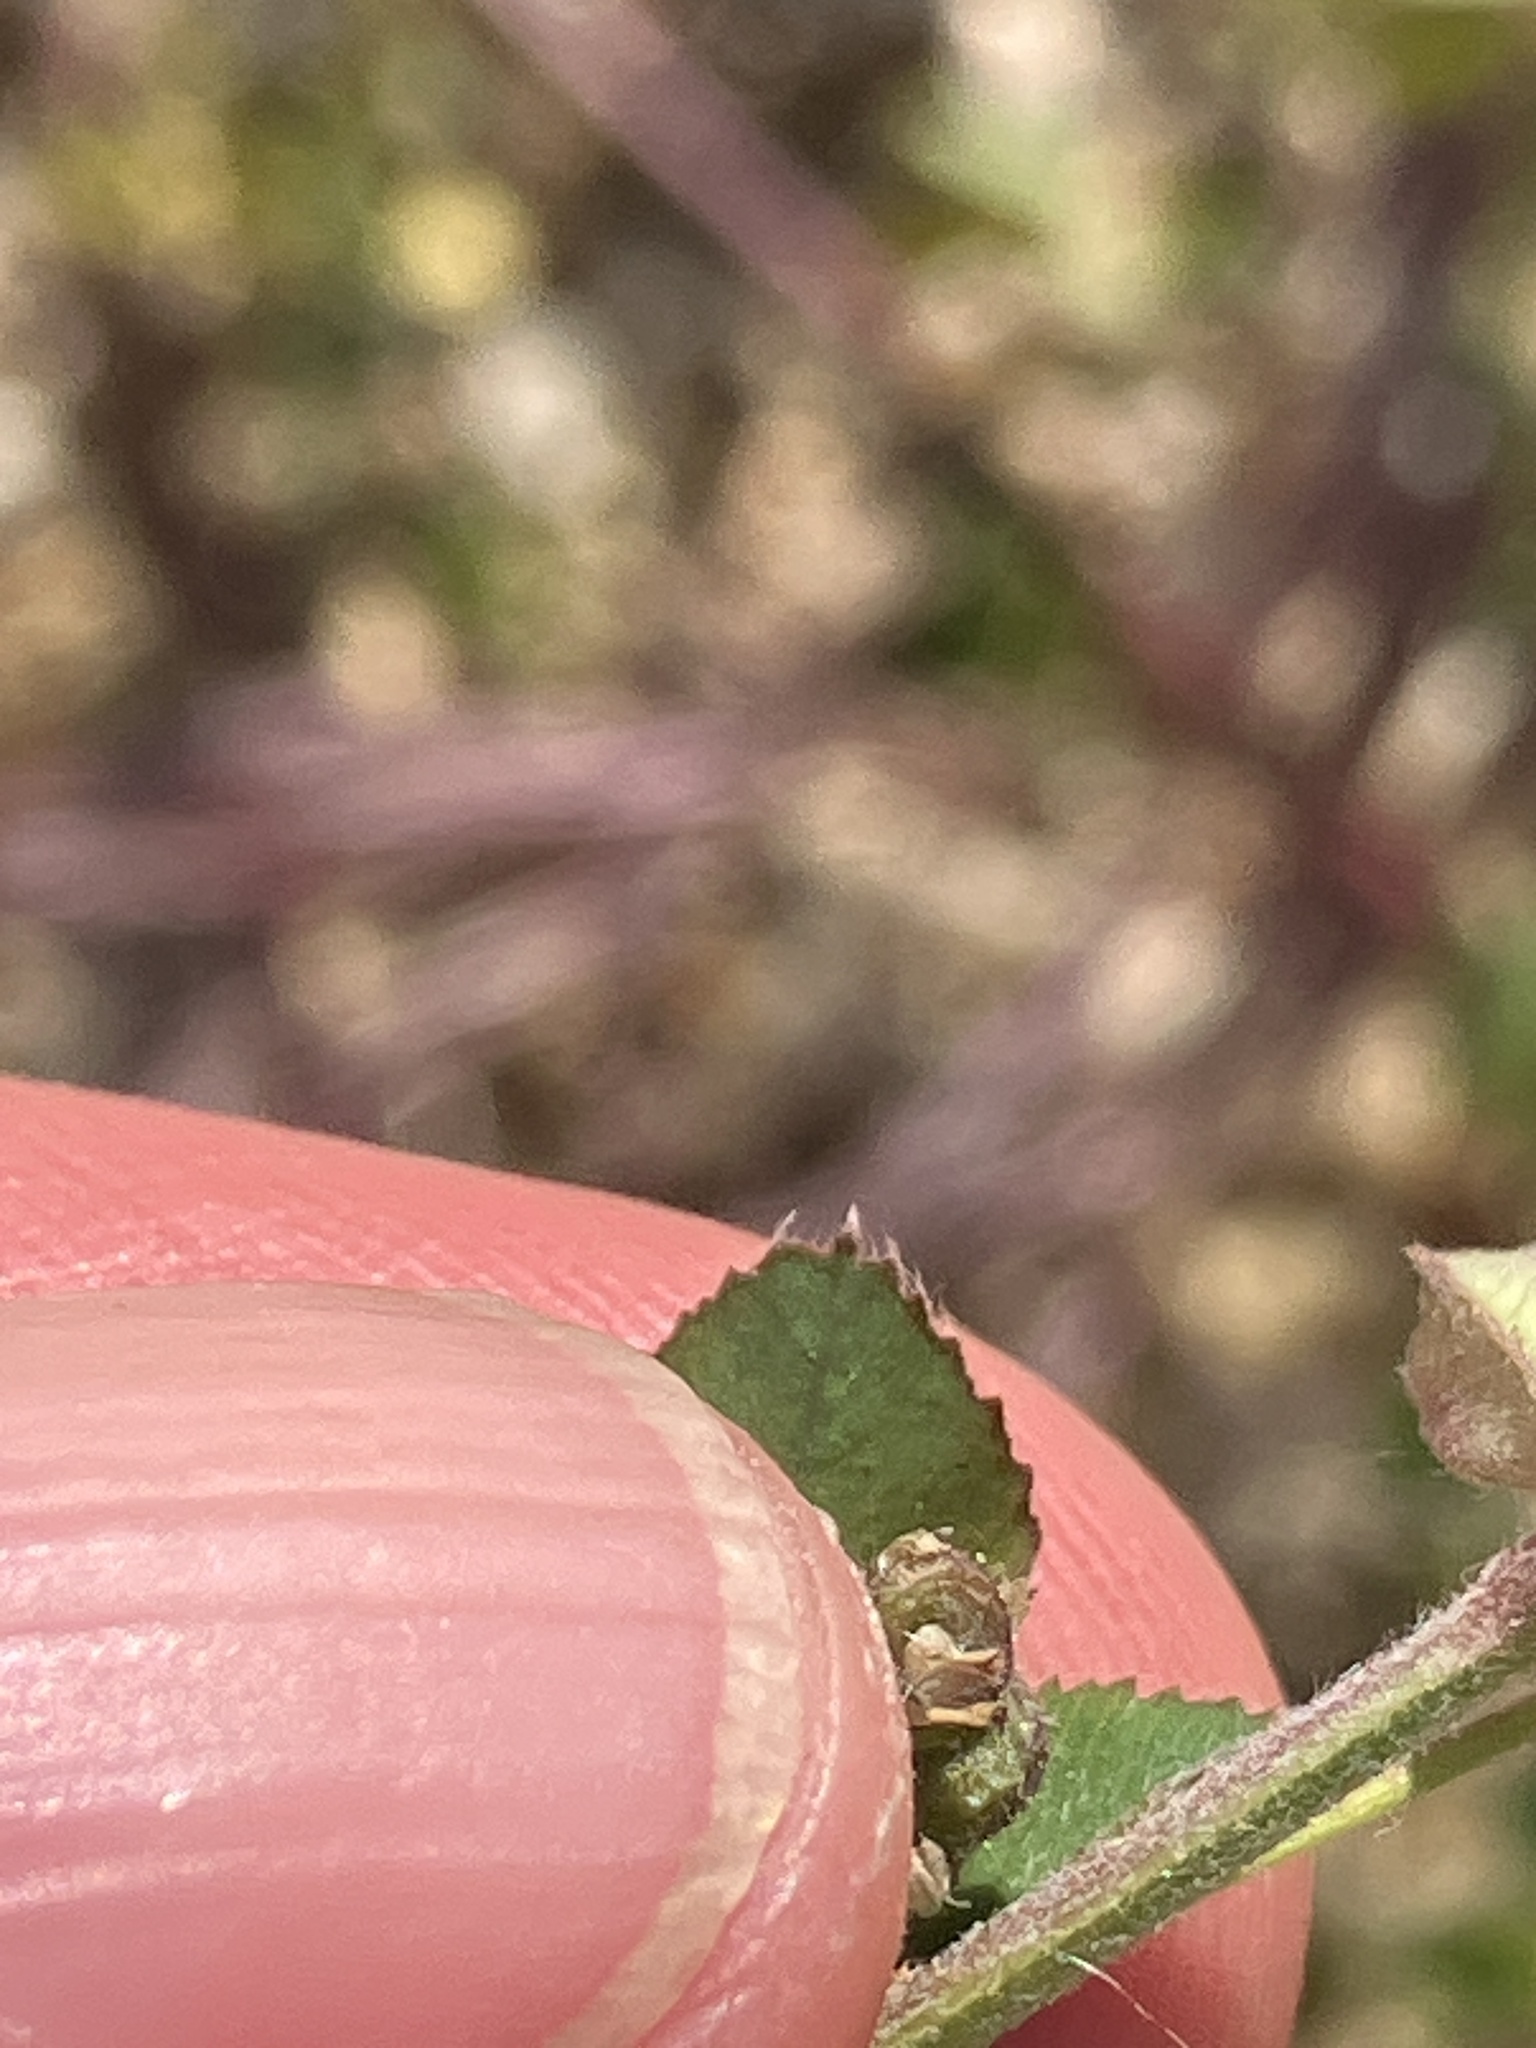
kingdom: Plantae
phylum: Tracheophyta
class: Magnoliopsida
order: Fabales
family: Fabaceae
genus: Medicago
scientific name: Medicago lupulina
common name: Black medick
